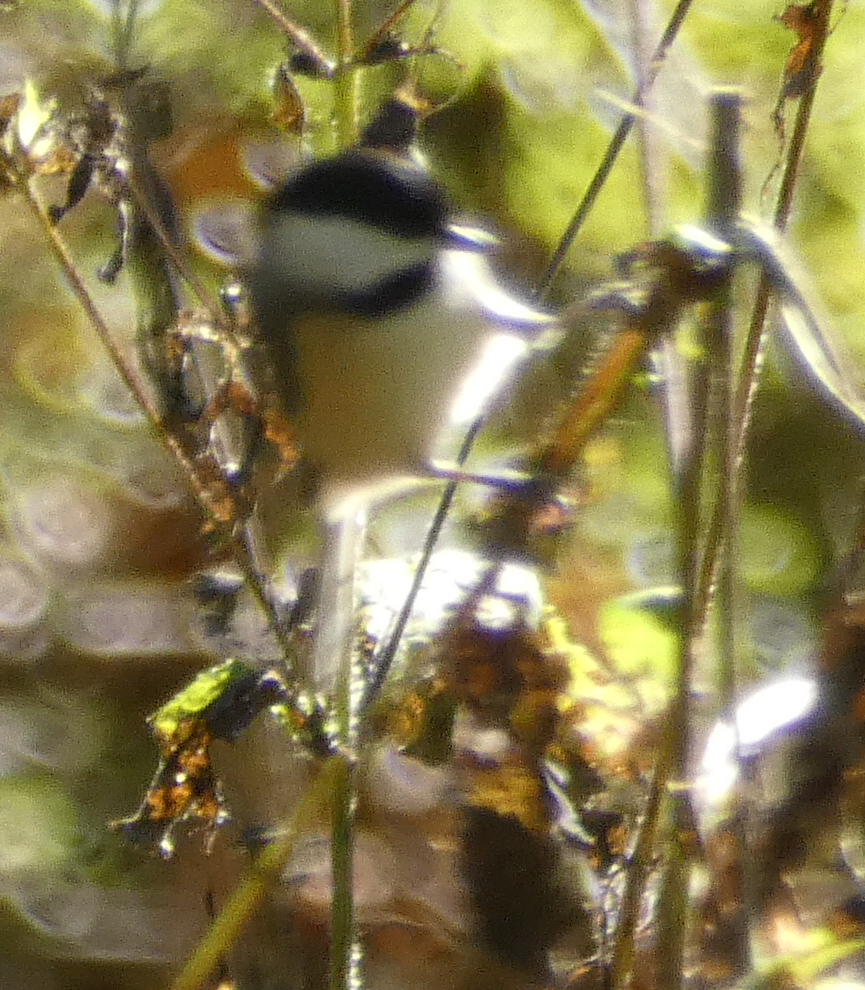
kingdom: Animalia
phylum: Chordata
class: Aves
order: Passeriformes
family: Paridae
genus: Poecile
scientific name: Poecile carolinensis
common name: Carolina chickadee
